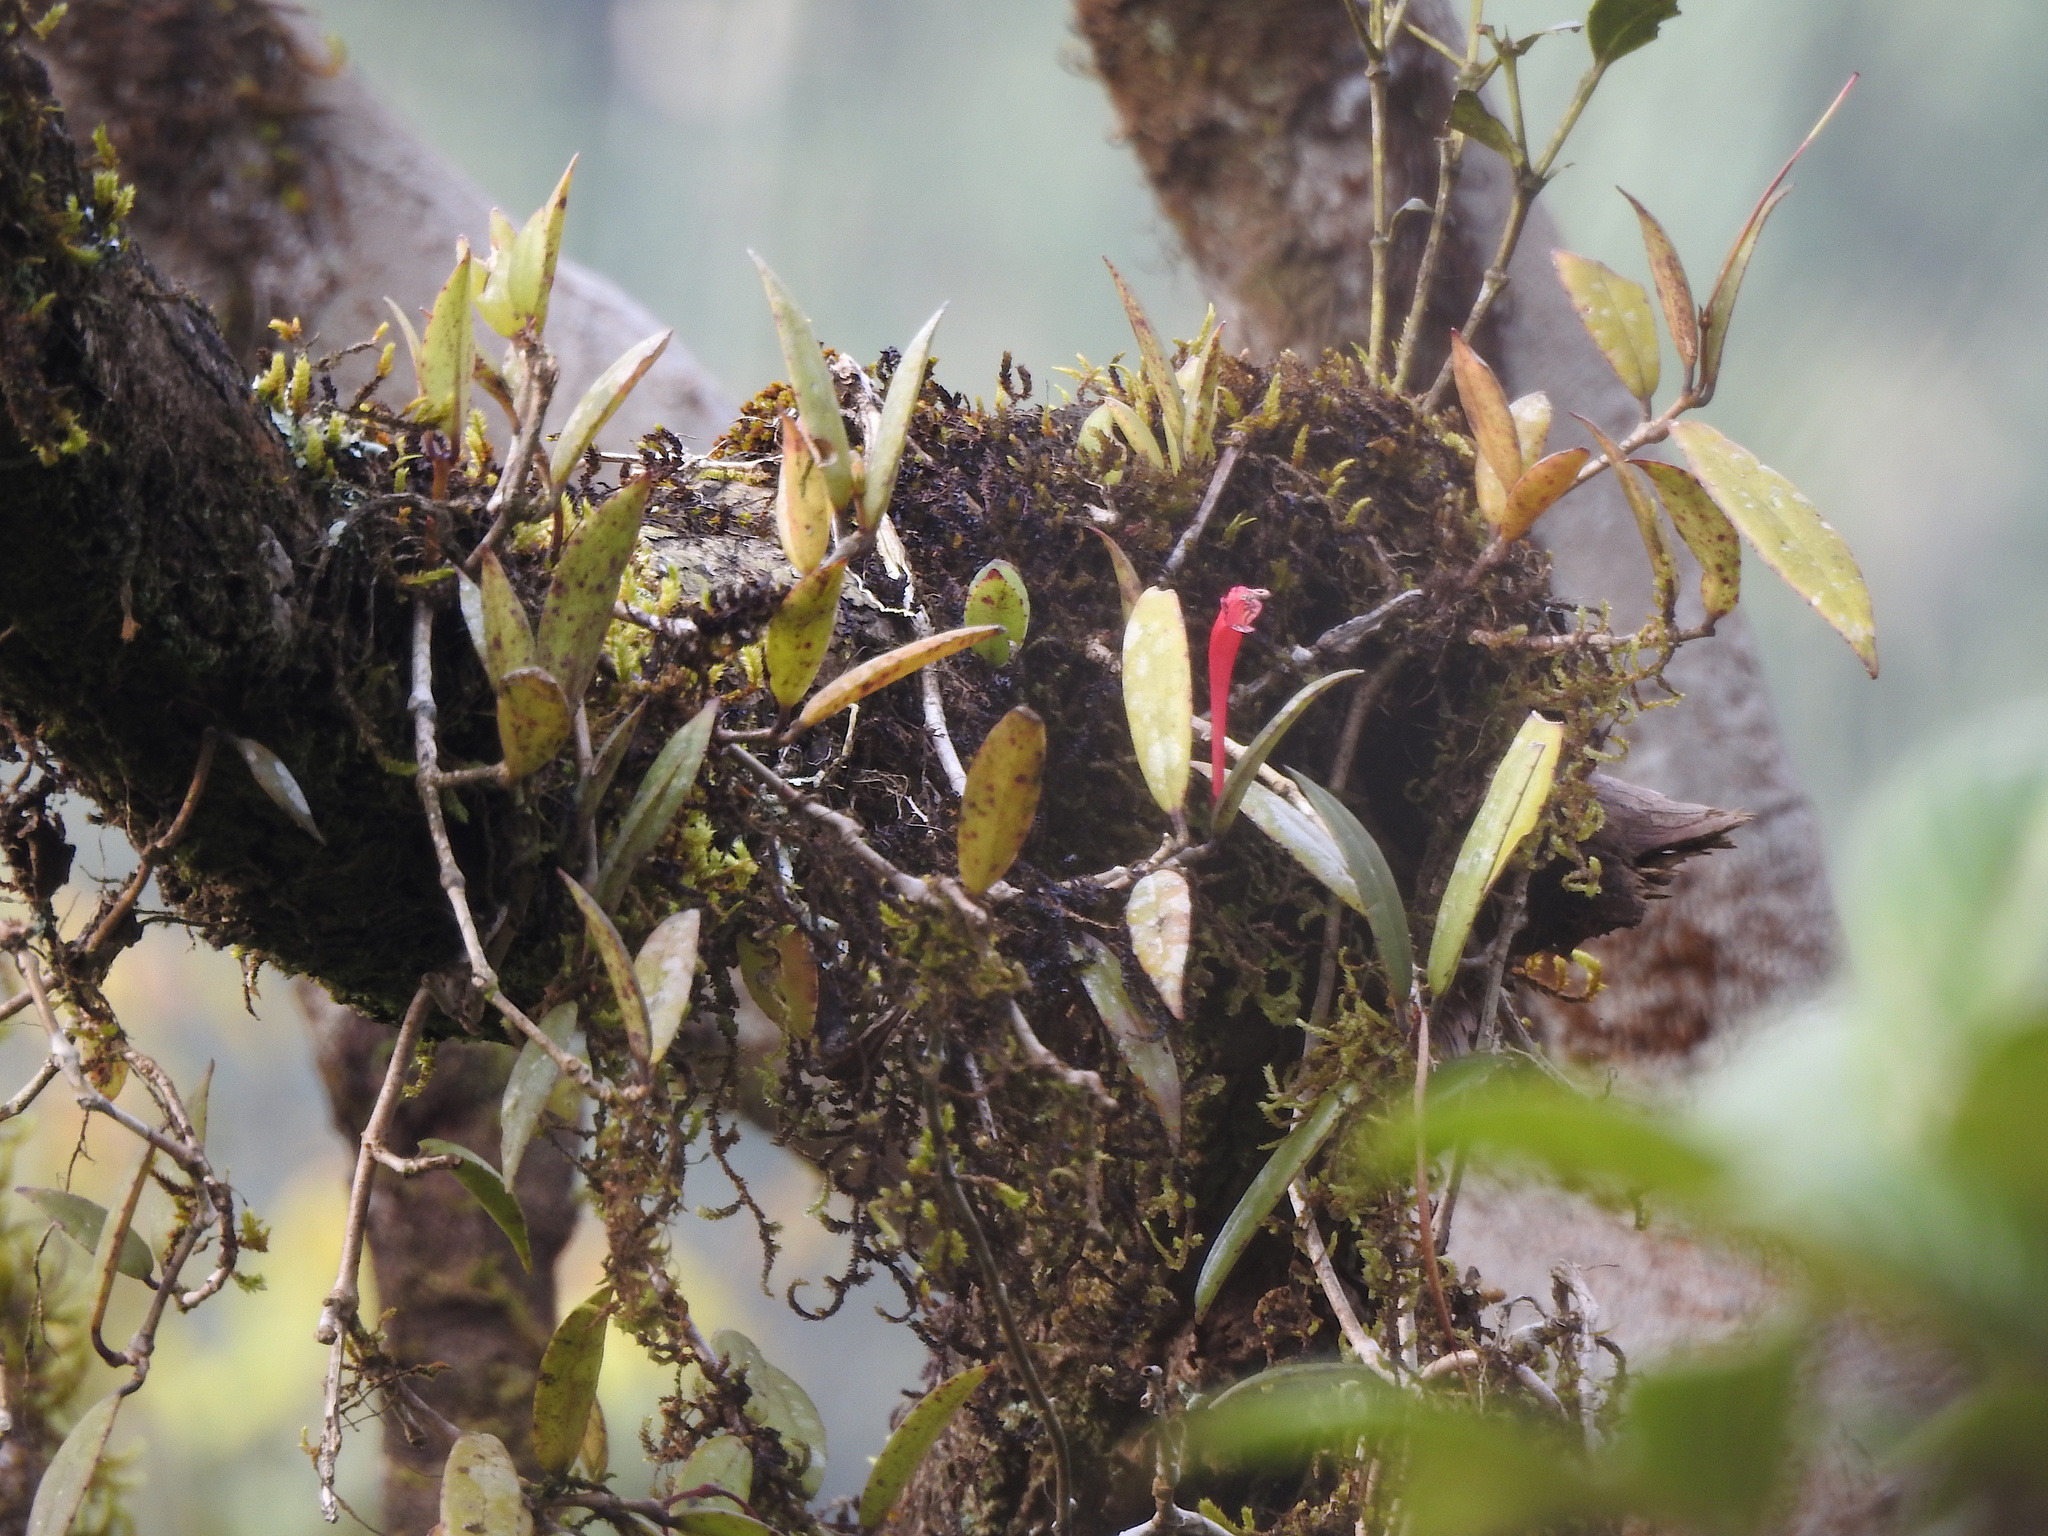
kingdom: Plantae
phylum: Tracheophyta
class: Magnoliopsida
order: Lamiales
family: Gesneriaceae
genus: Aeschynanthus
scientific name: Aeschynanthus perrottetii
